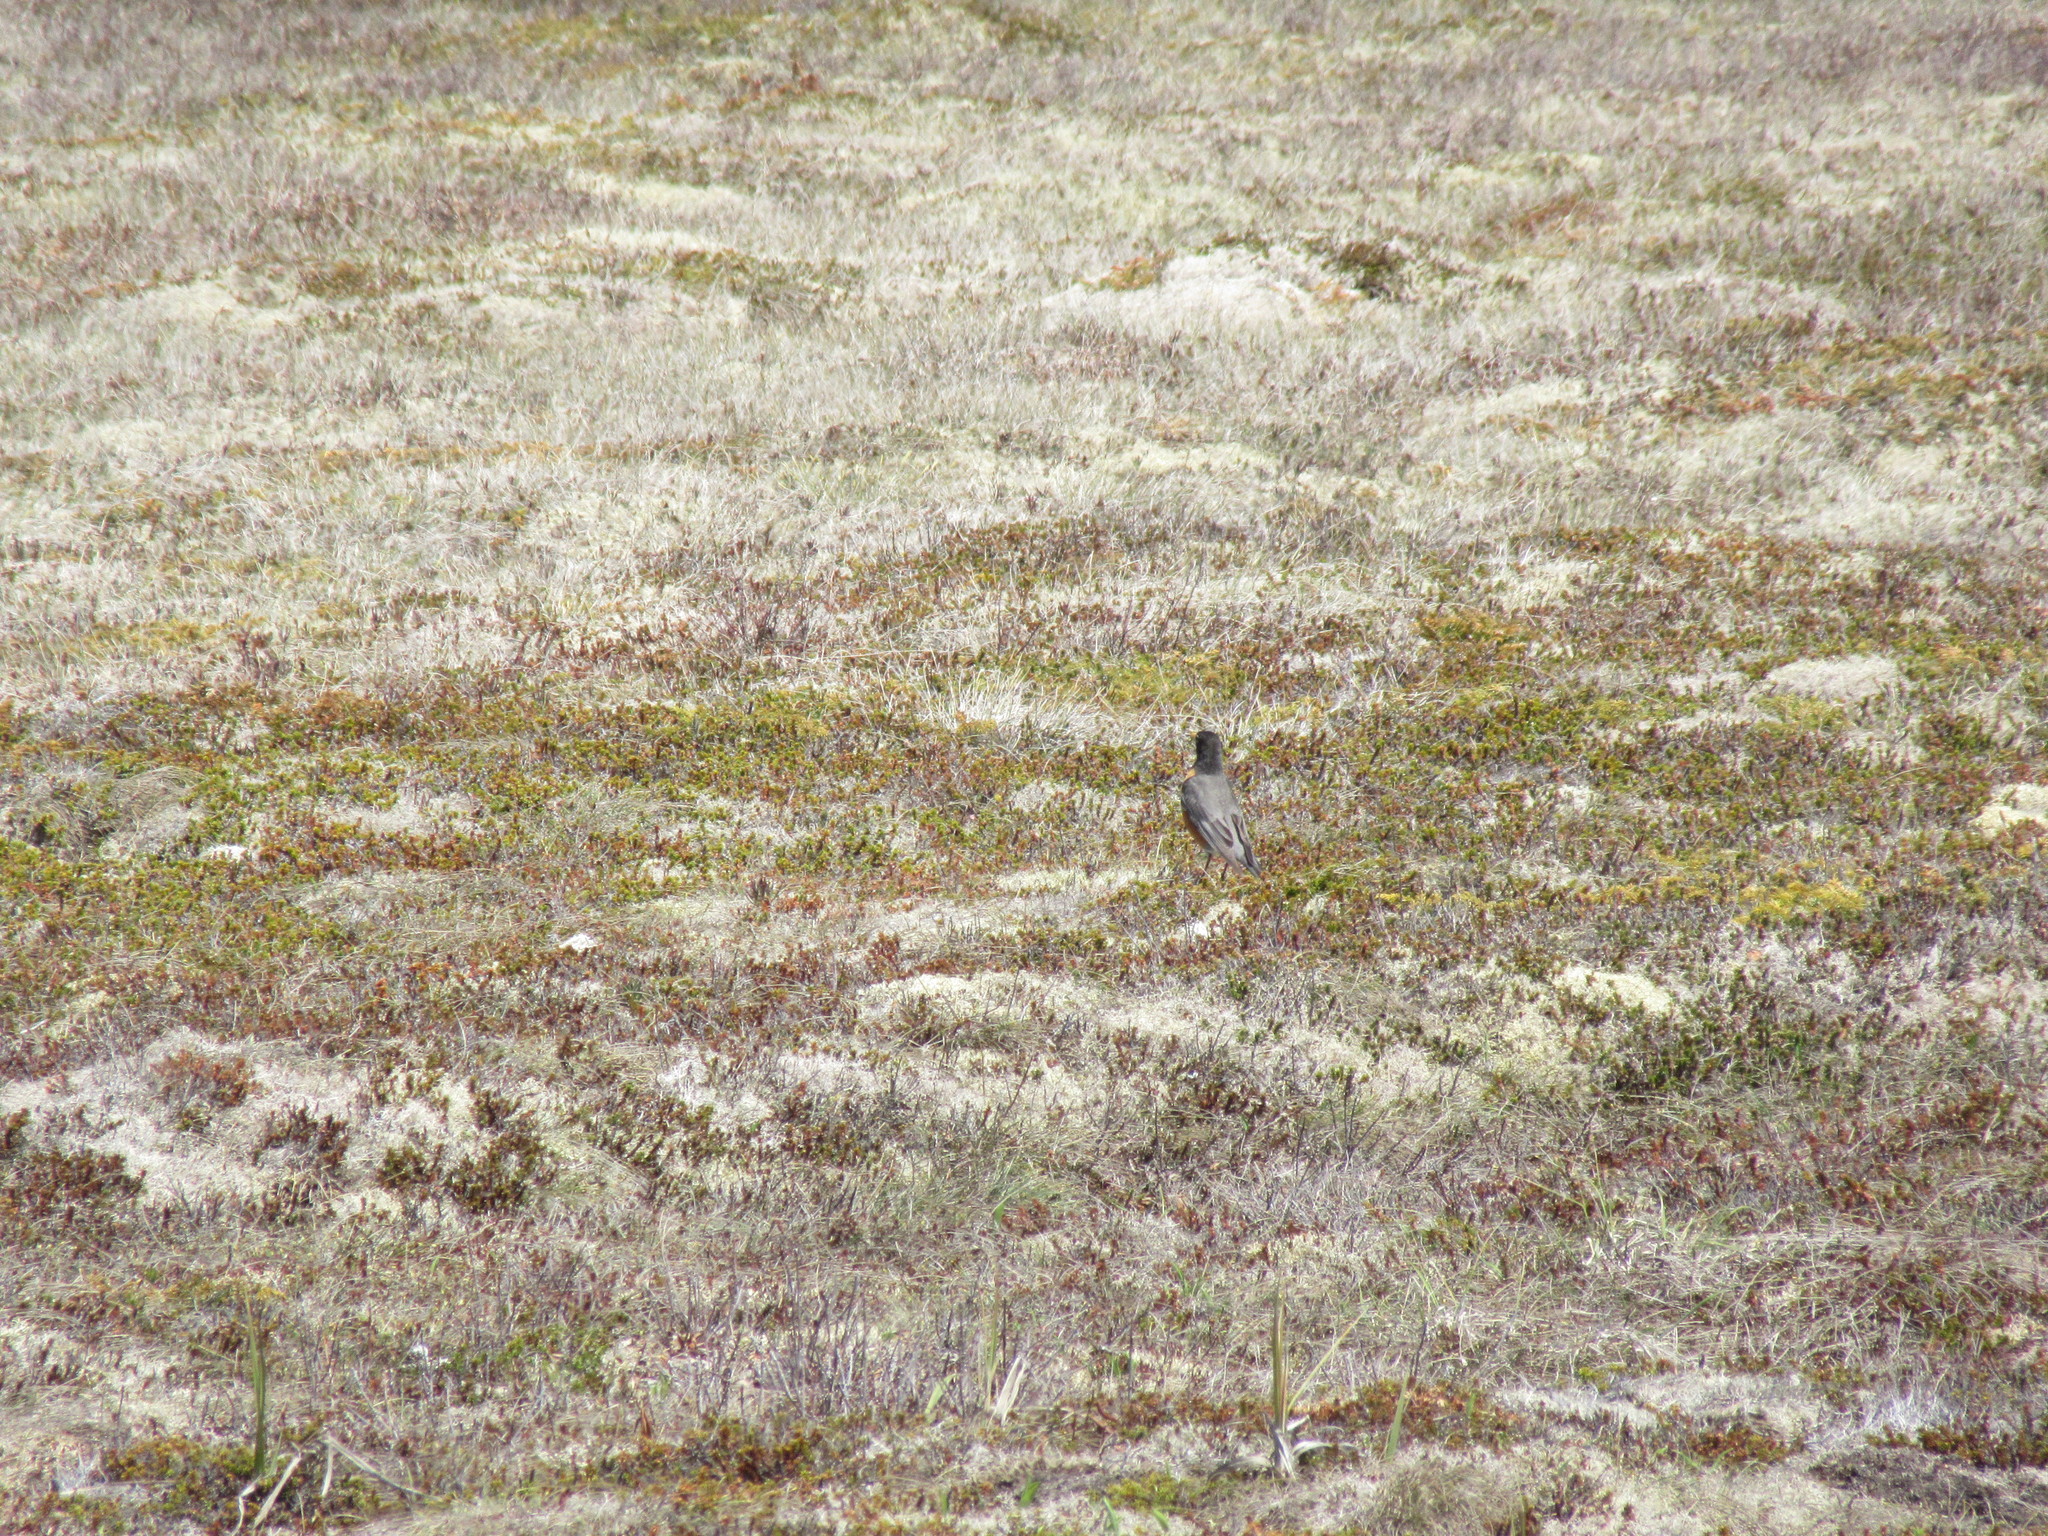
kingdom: Animalia
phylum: Chordata
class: Aves
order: Passeriformes
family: Turdidae
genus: Turdus
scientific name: Turdus migratorius
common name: American robin
